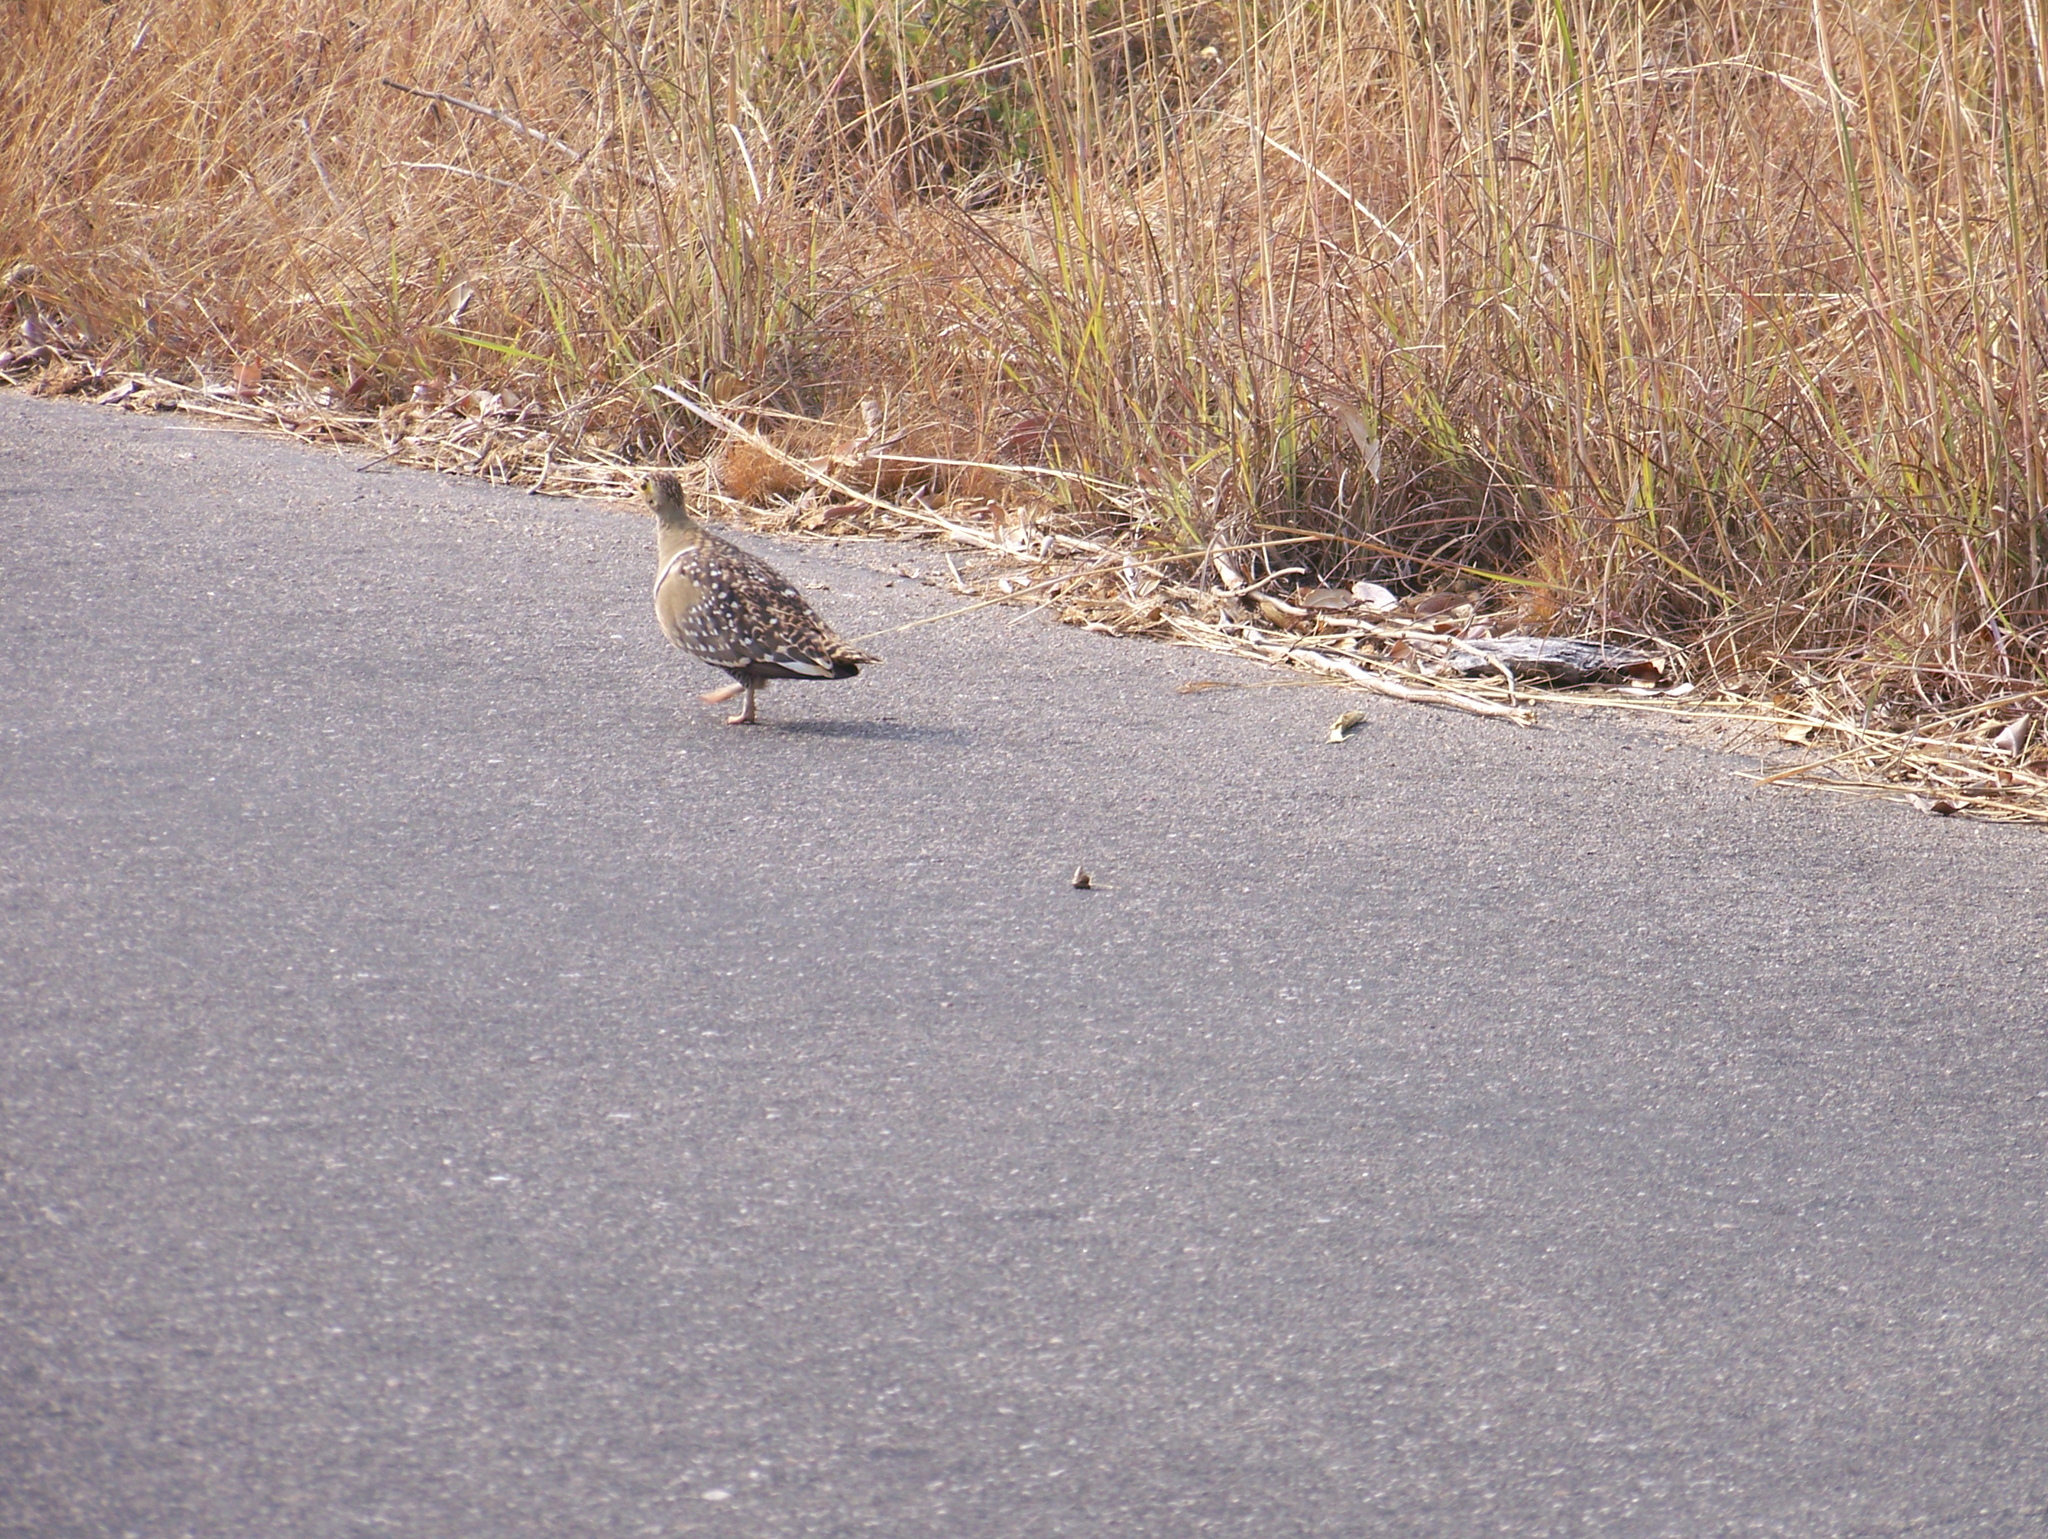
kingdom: Animalia
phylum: Chordata
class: Aves
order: Pteroclidiformes
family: Pteroclididae
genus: Pterocles
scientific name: Pterocles bicinctus
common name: Double-banded sandgrouse
